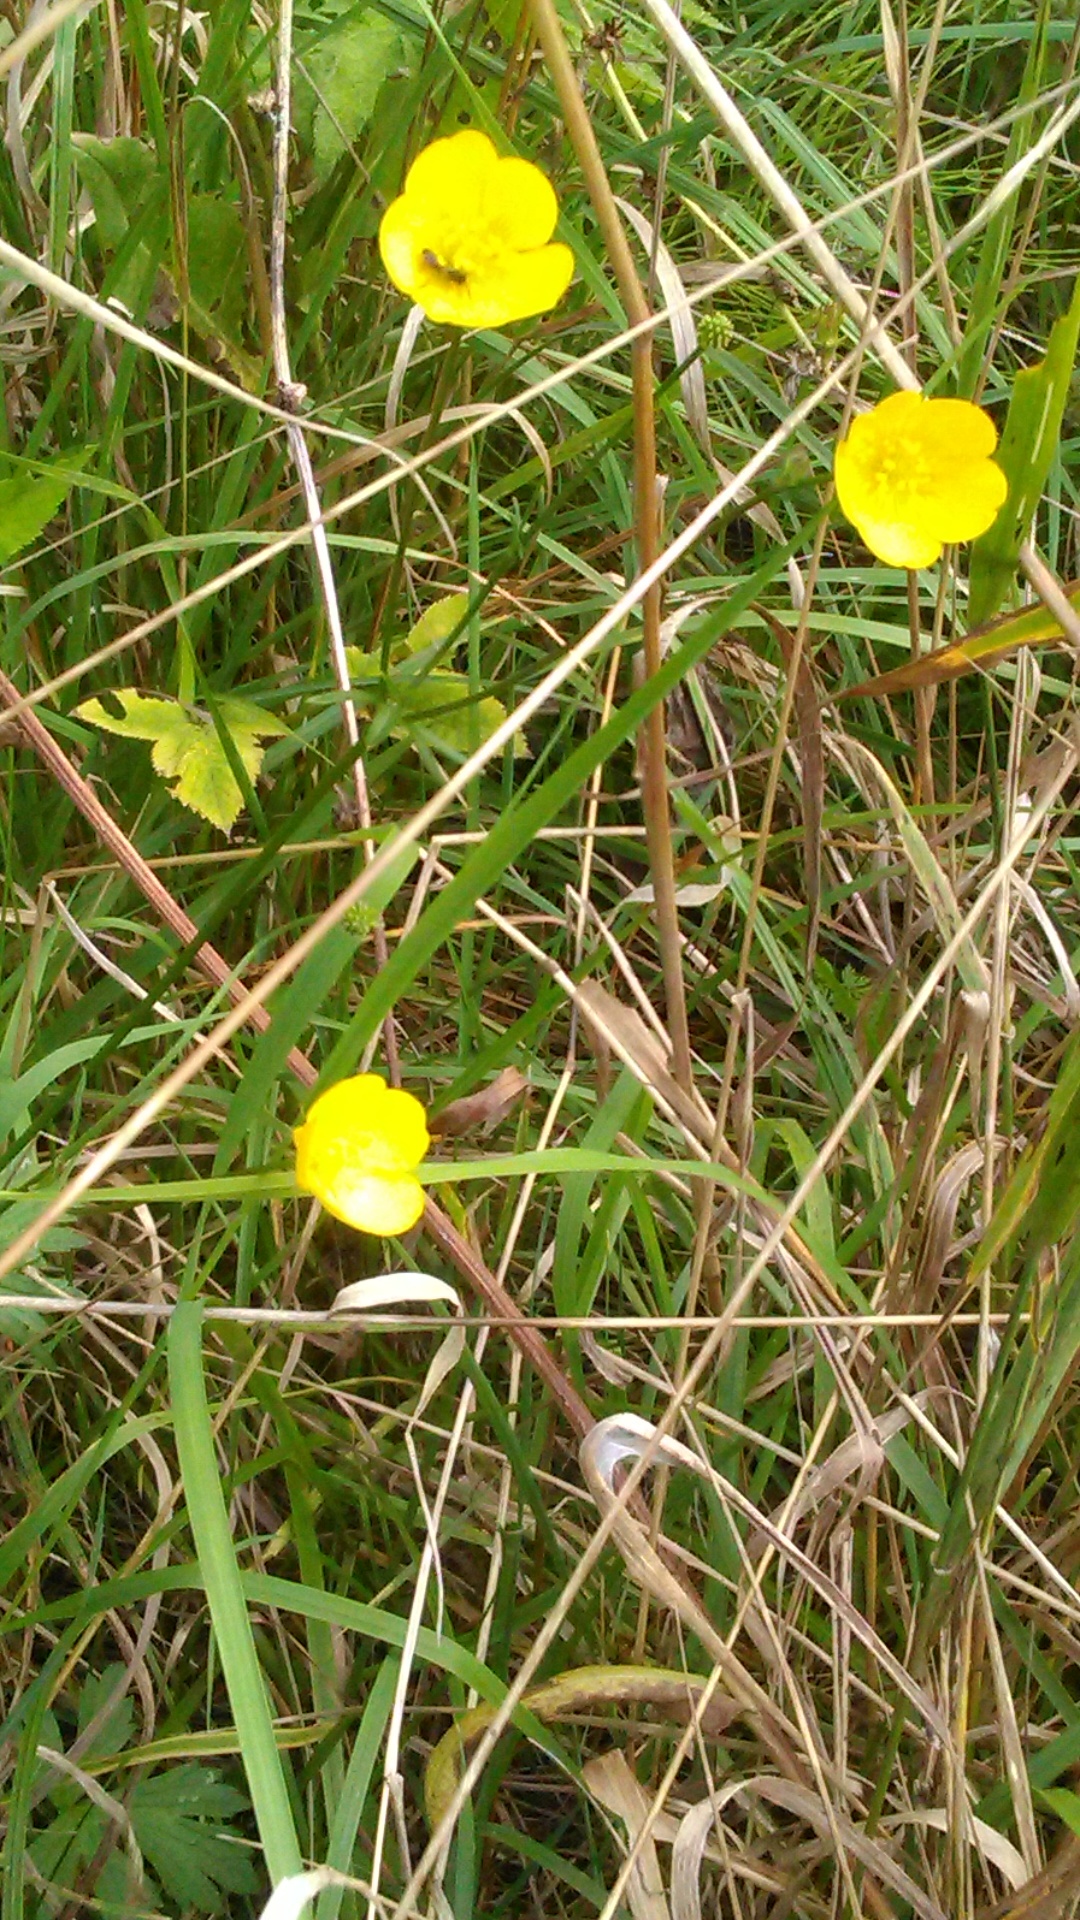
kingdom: Plantae
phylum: Tracheophyta
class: Magnoliopsida
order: Ranunculales
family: Ranunculaceae
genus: Ranunculus
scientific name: Ranunculus acris
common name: Meadow buttercup
